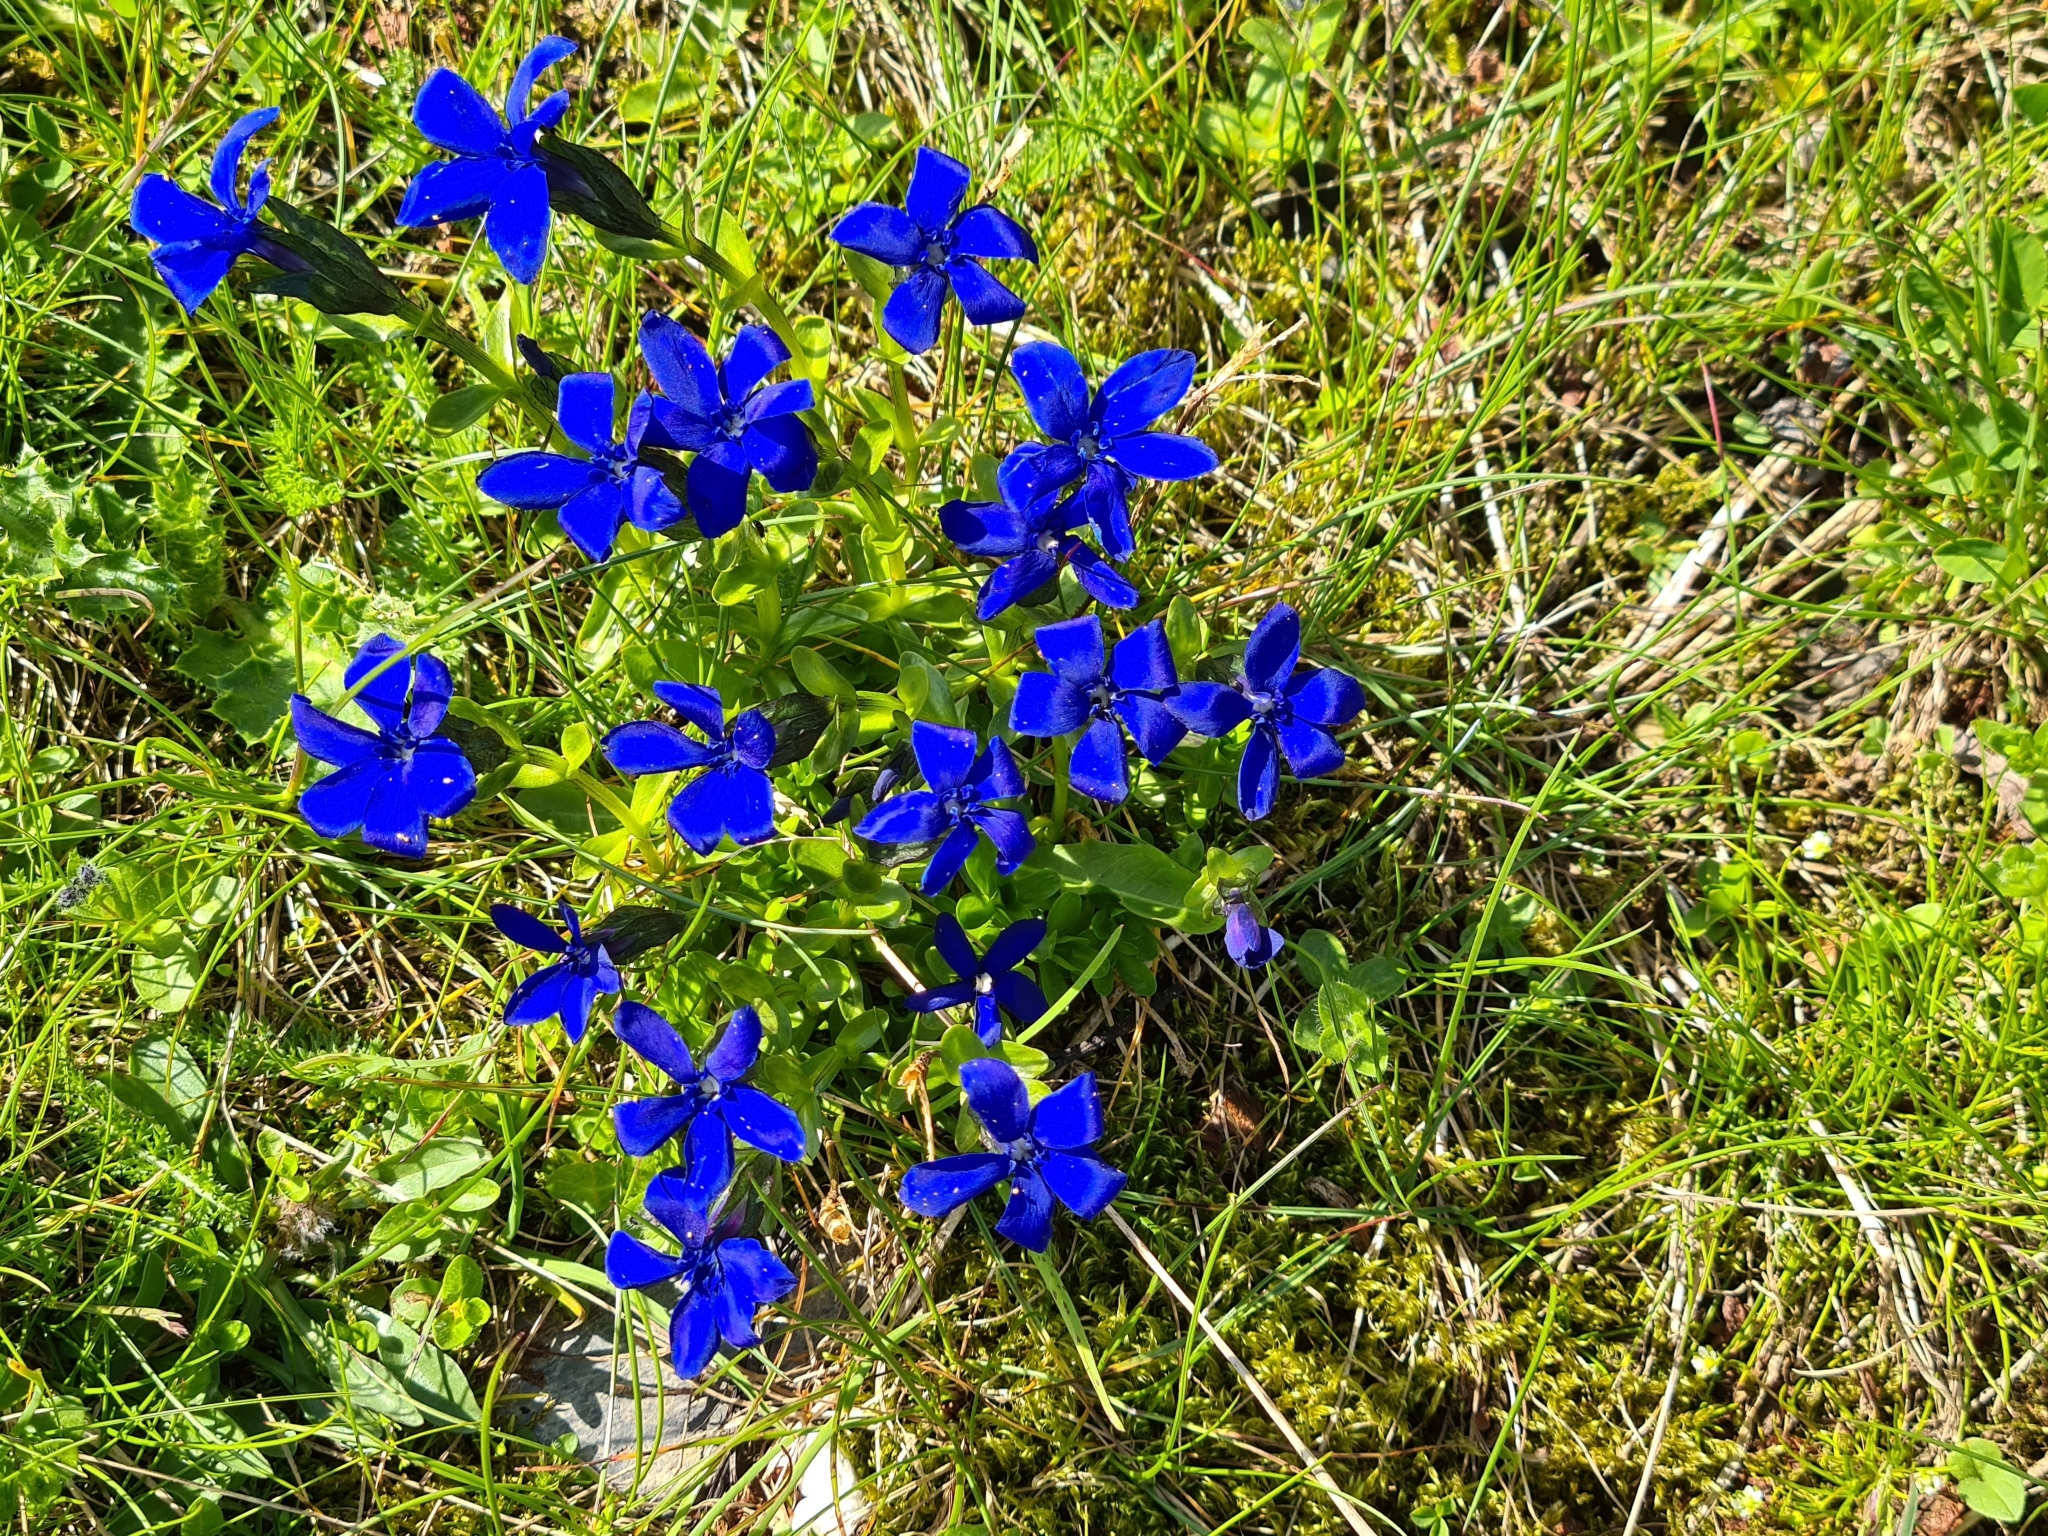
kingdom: Plantae
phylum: Tracheophyta
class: Magnoliopsida
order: Gentianales
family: Gentianaceae
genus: Gentiana
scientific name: Gentiana bavarica
